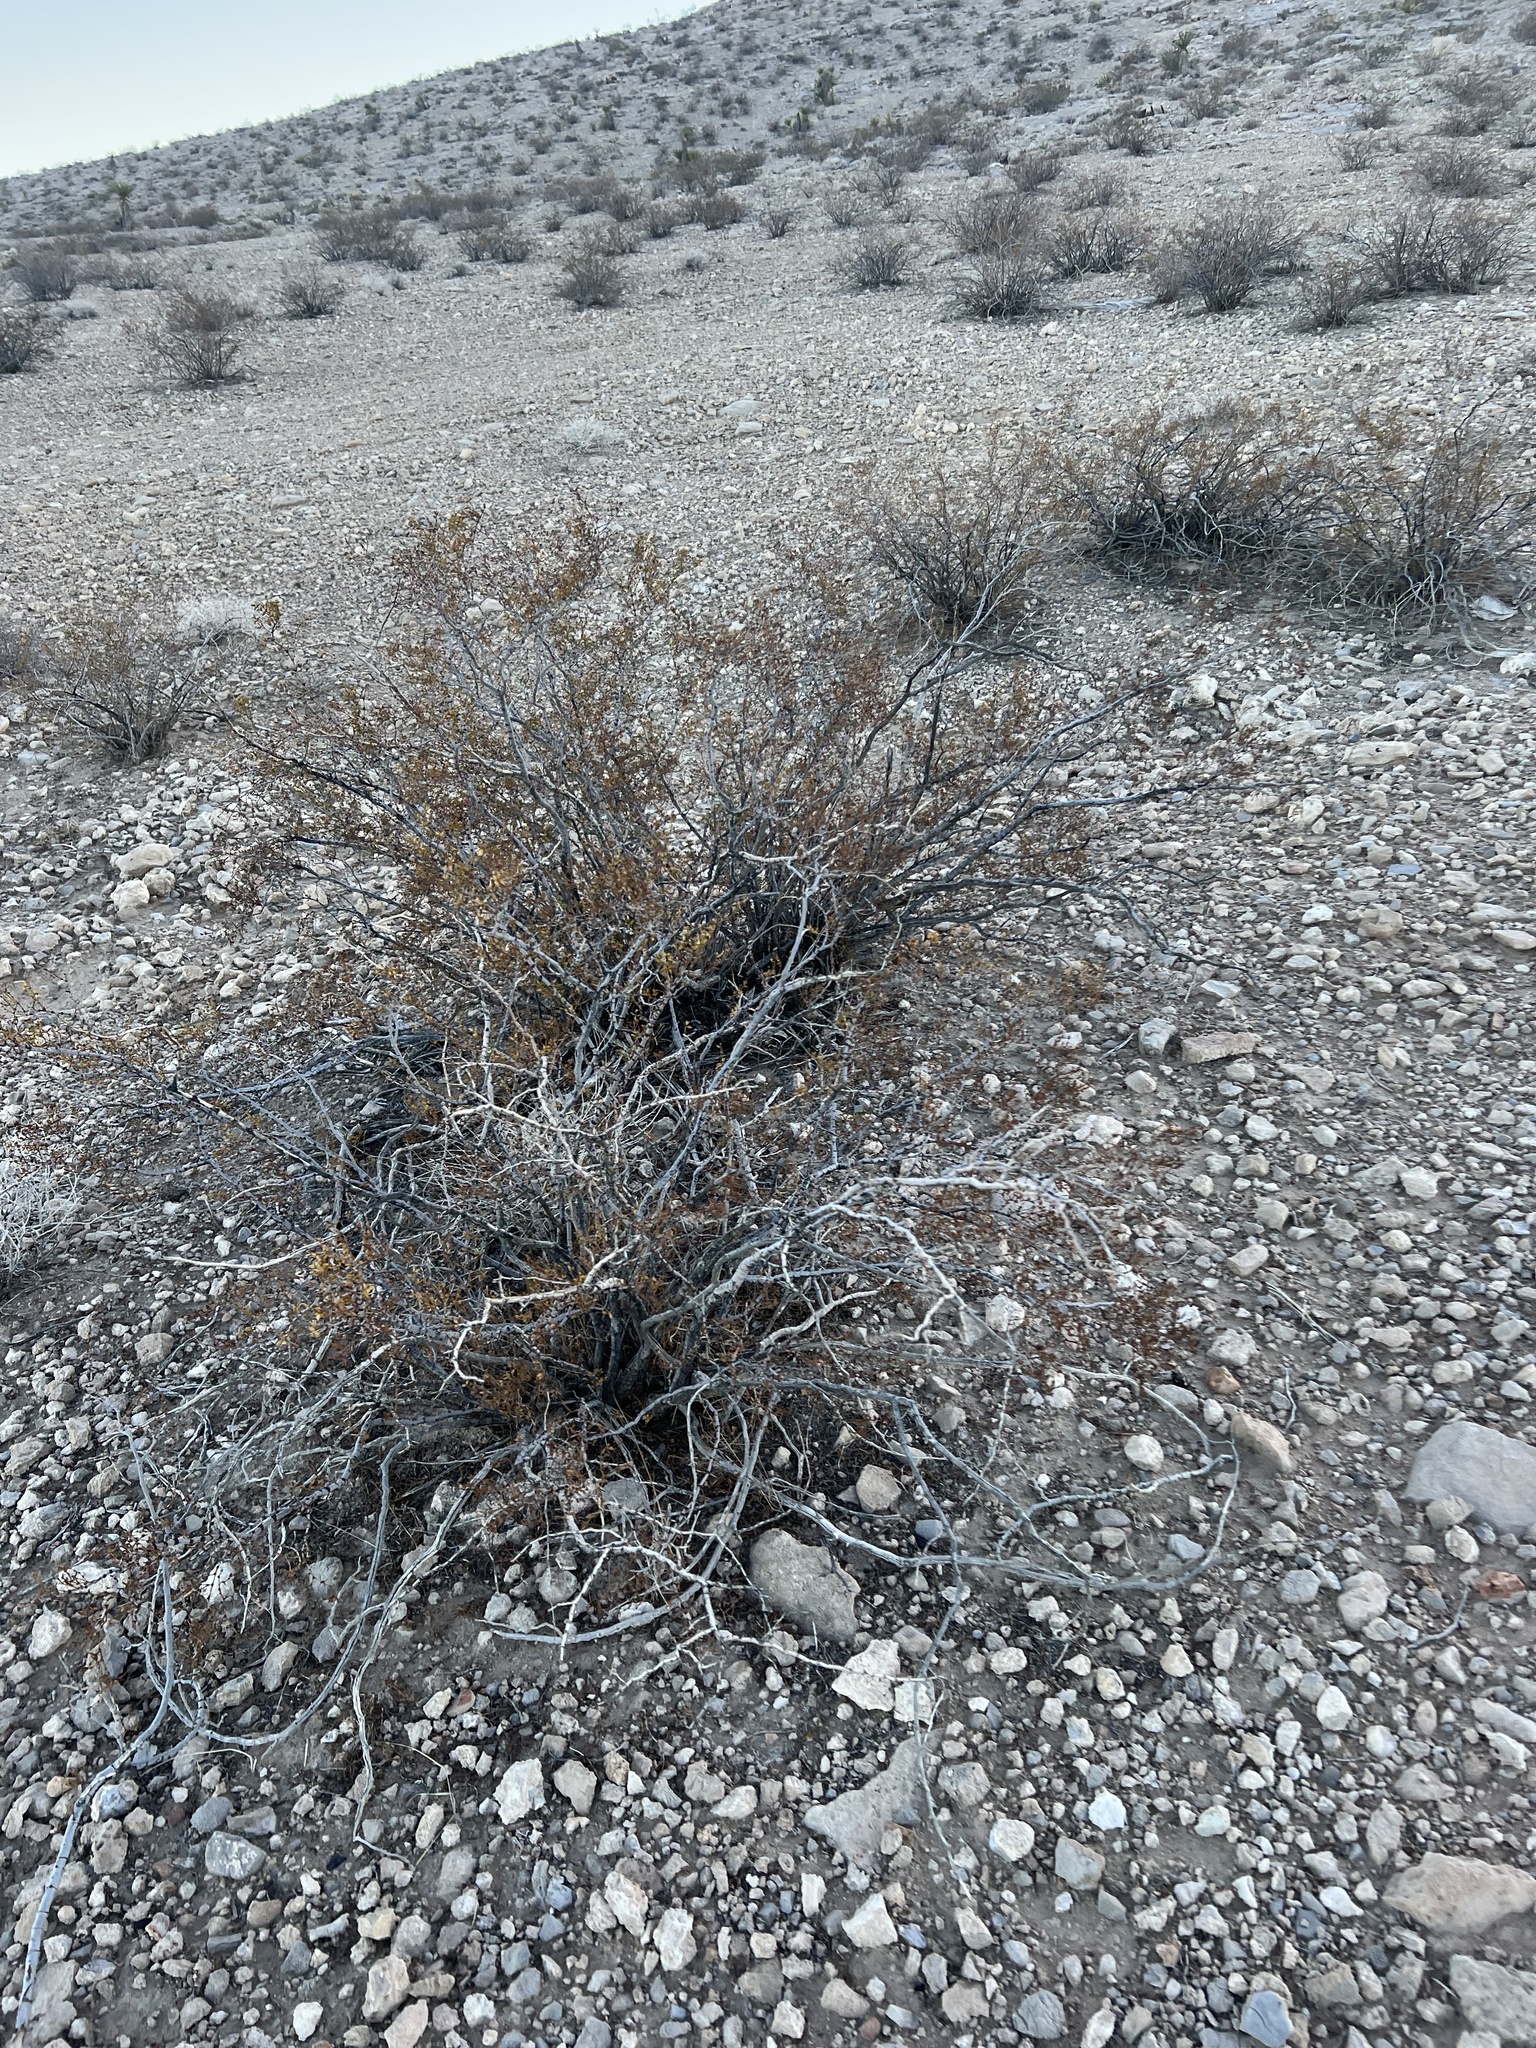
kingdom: Plantae
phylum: Tracheophyta
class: Magnoliopsida
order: Zygophyllales
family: Zygophyllaceae
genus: Larrea
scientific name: Larrea tridentata
